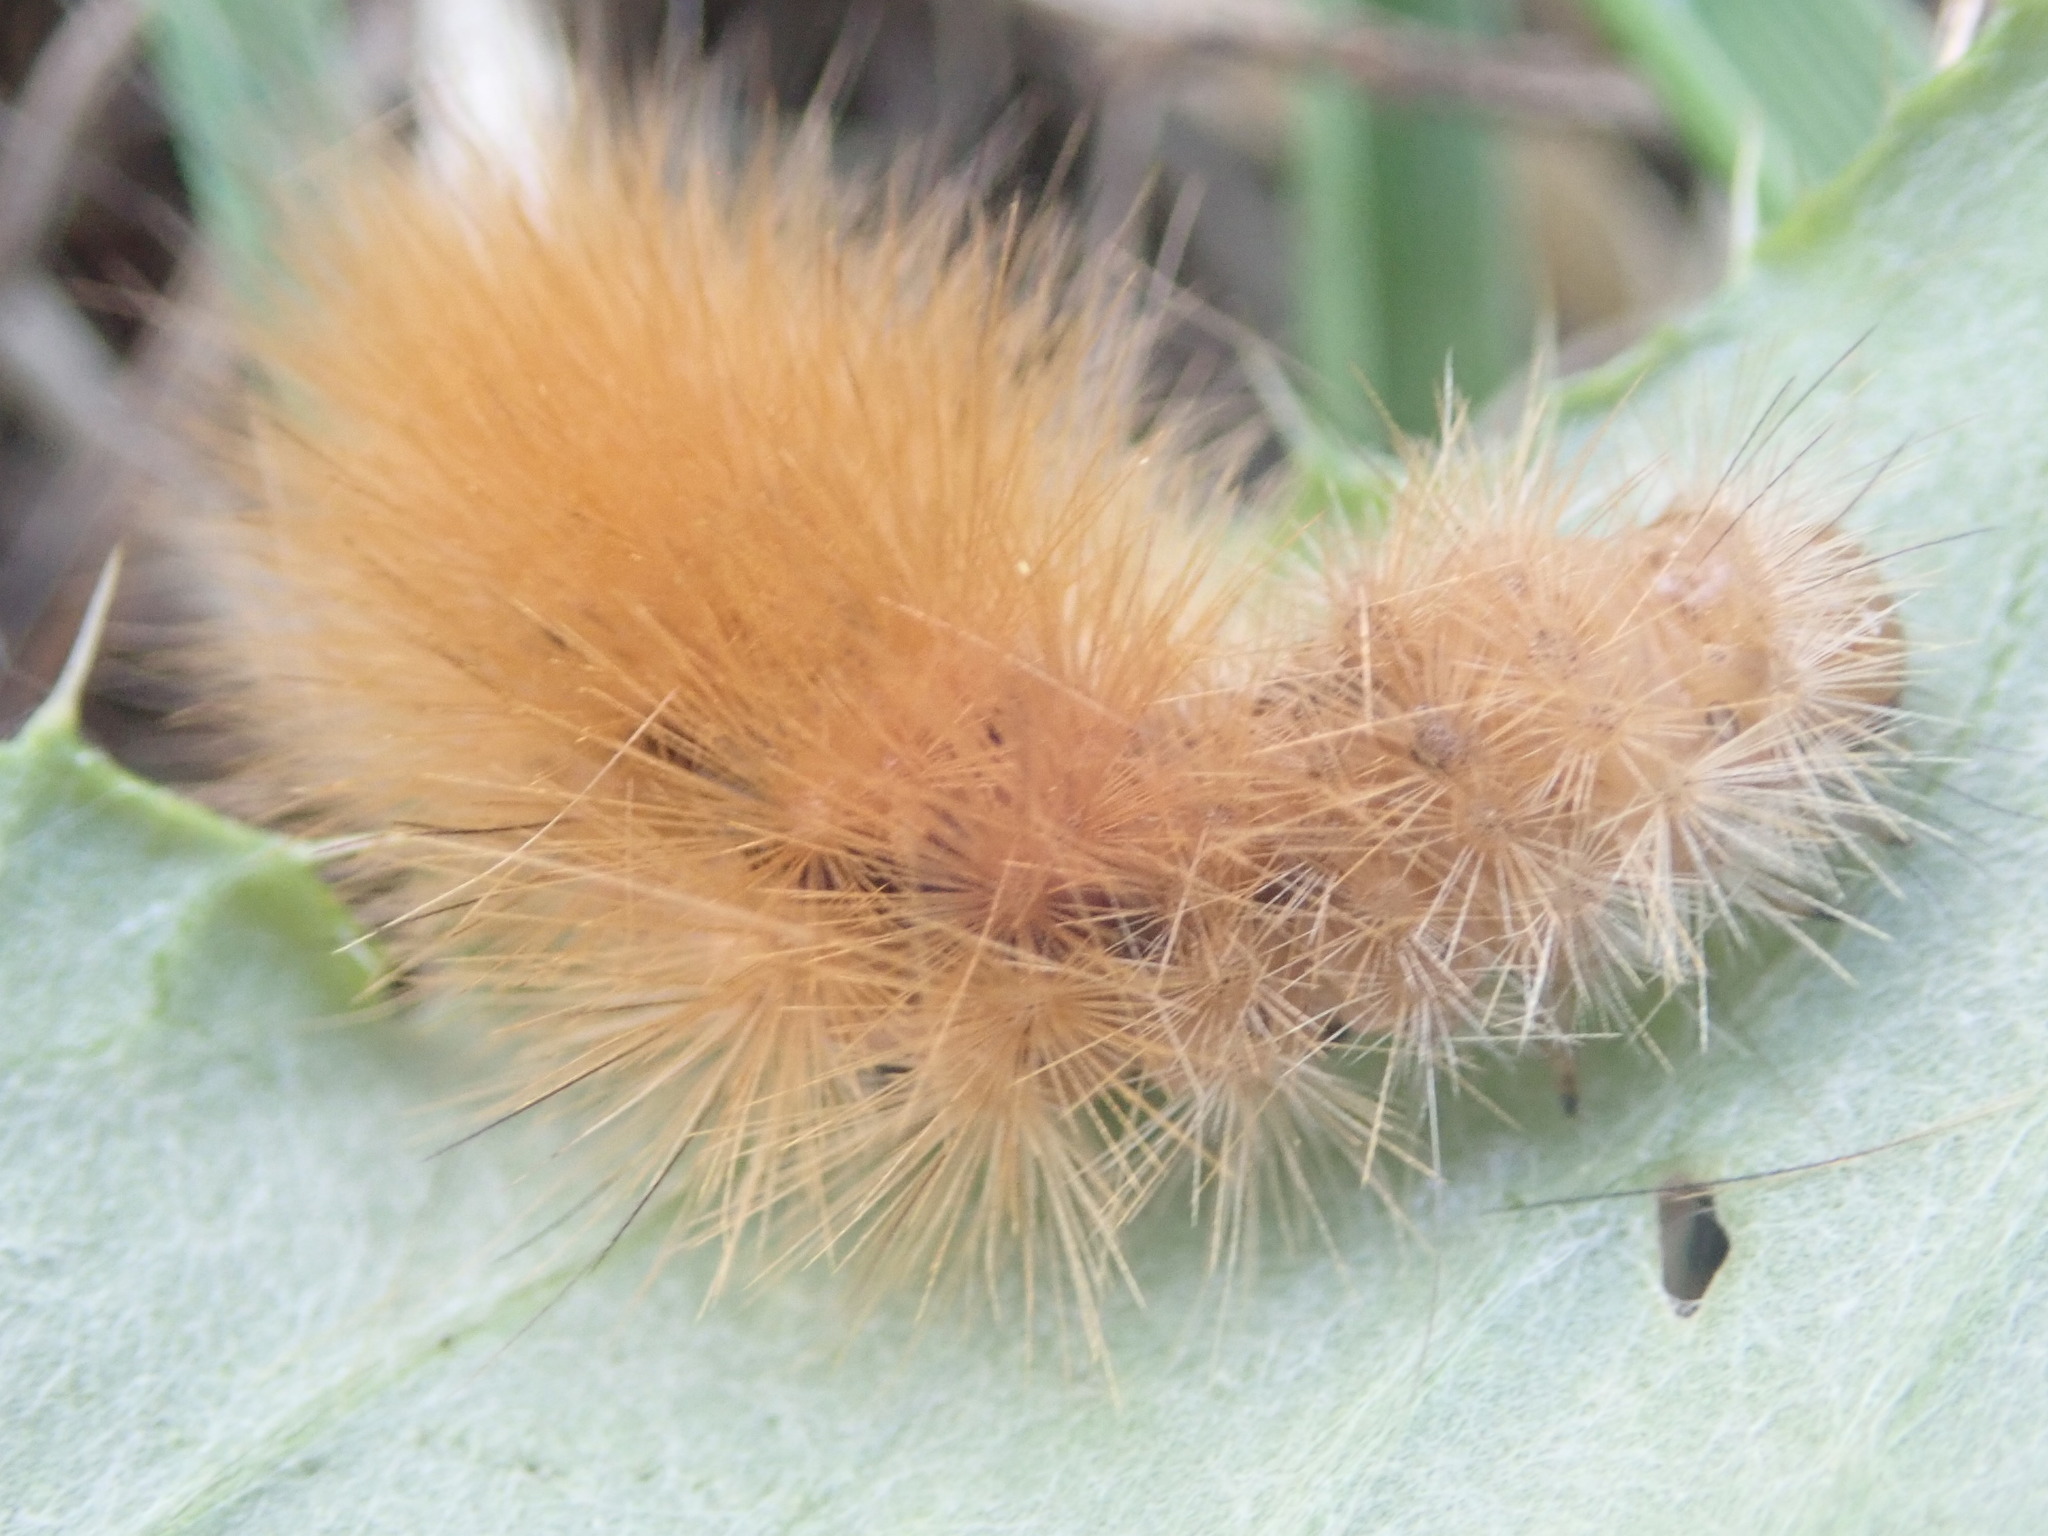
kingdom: Animalia
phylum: Arthropoda
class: Insecta
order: Lepidoptera
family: Erebidae
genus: Spilosoma
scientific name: Spilosoma virginica
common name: Virginia tiger moth
